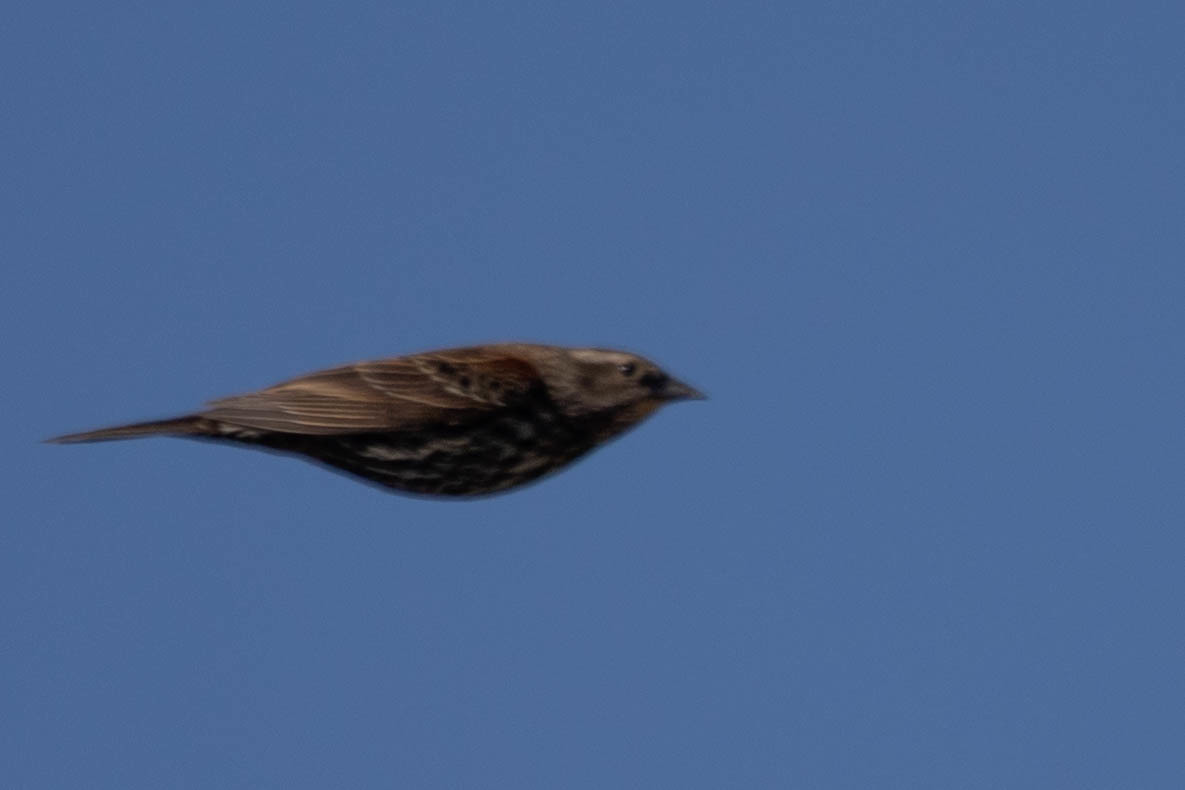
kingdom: Animalia
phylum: Chordata
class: Aves
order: Passeriformes
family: Icteridae
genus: Agelaius
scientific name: Agelaius phoeniceus
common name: Red-winged blackbird
